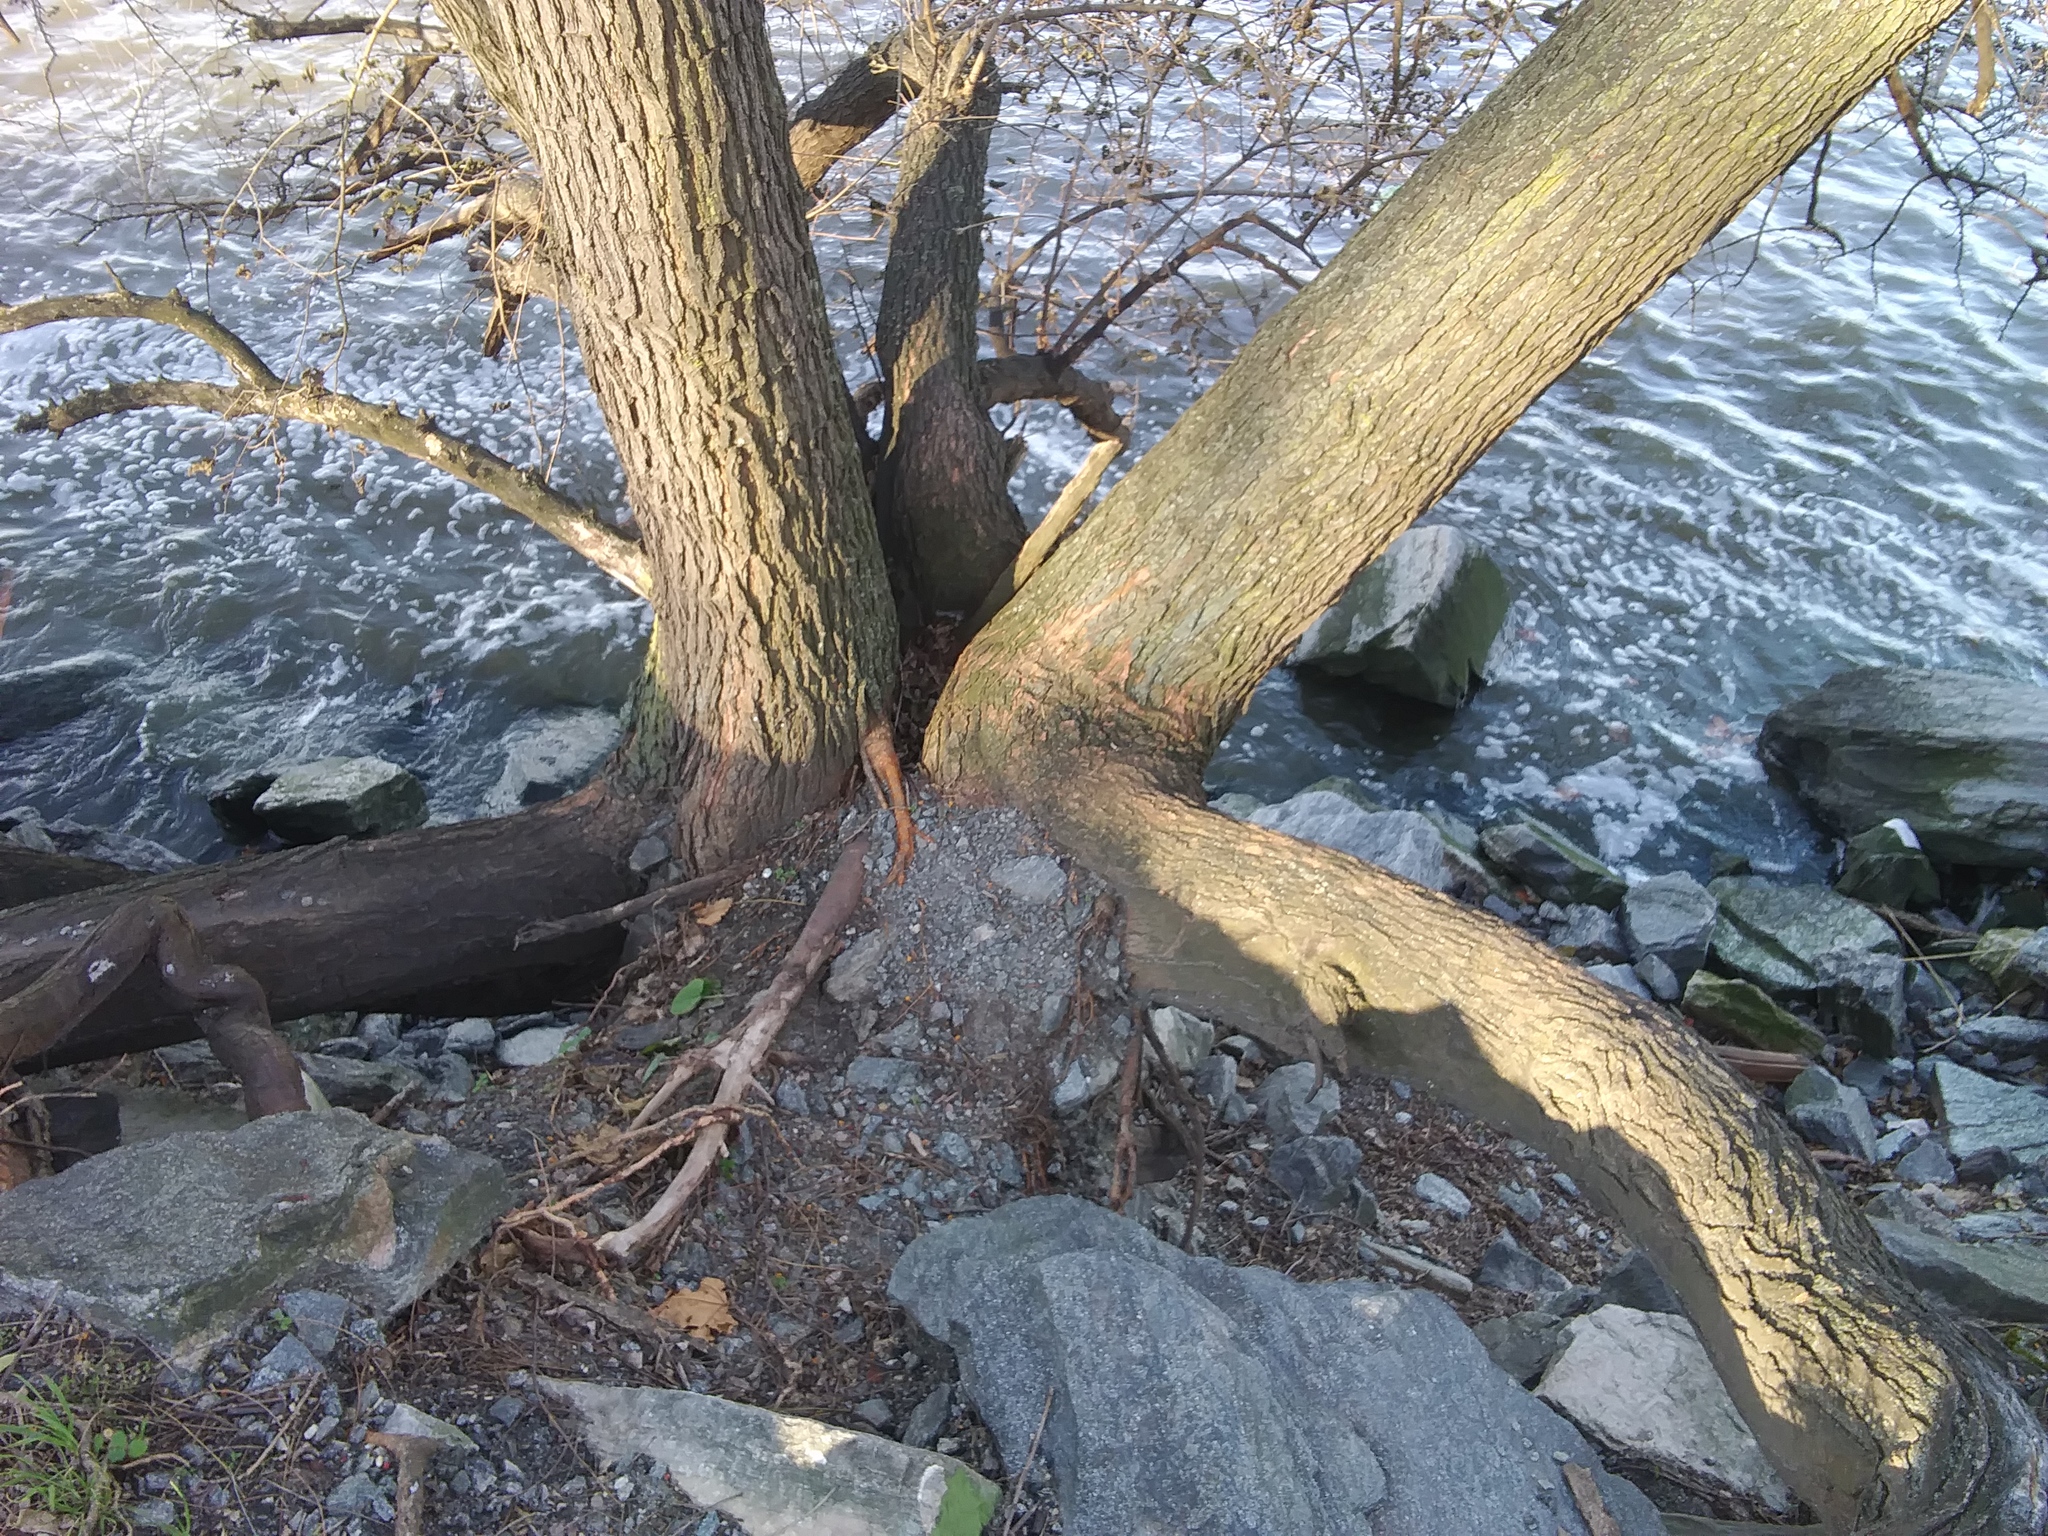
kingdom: Plantae
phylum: Tracheophyta
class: Magnoliopsida
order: Rosales
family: Moraceae
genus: Morus
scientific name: Morus alba
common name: White mulberry
